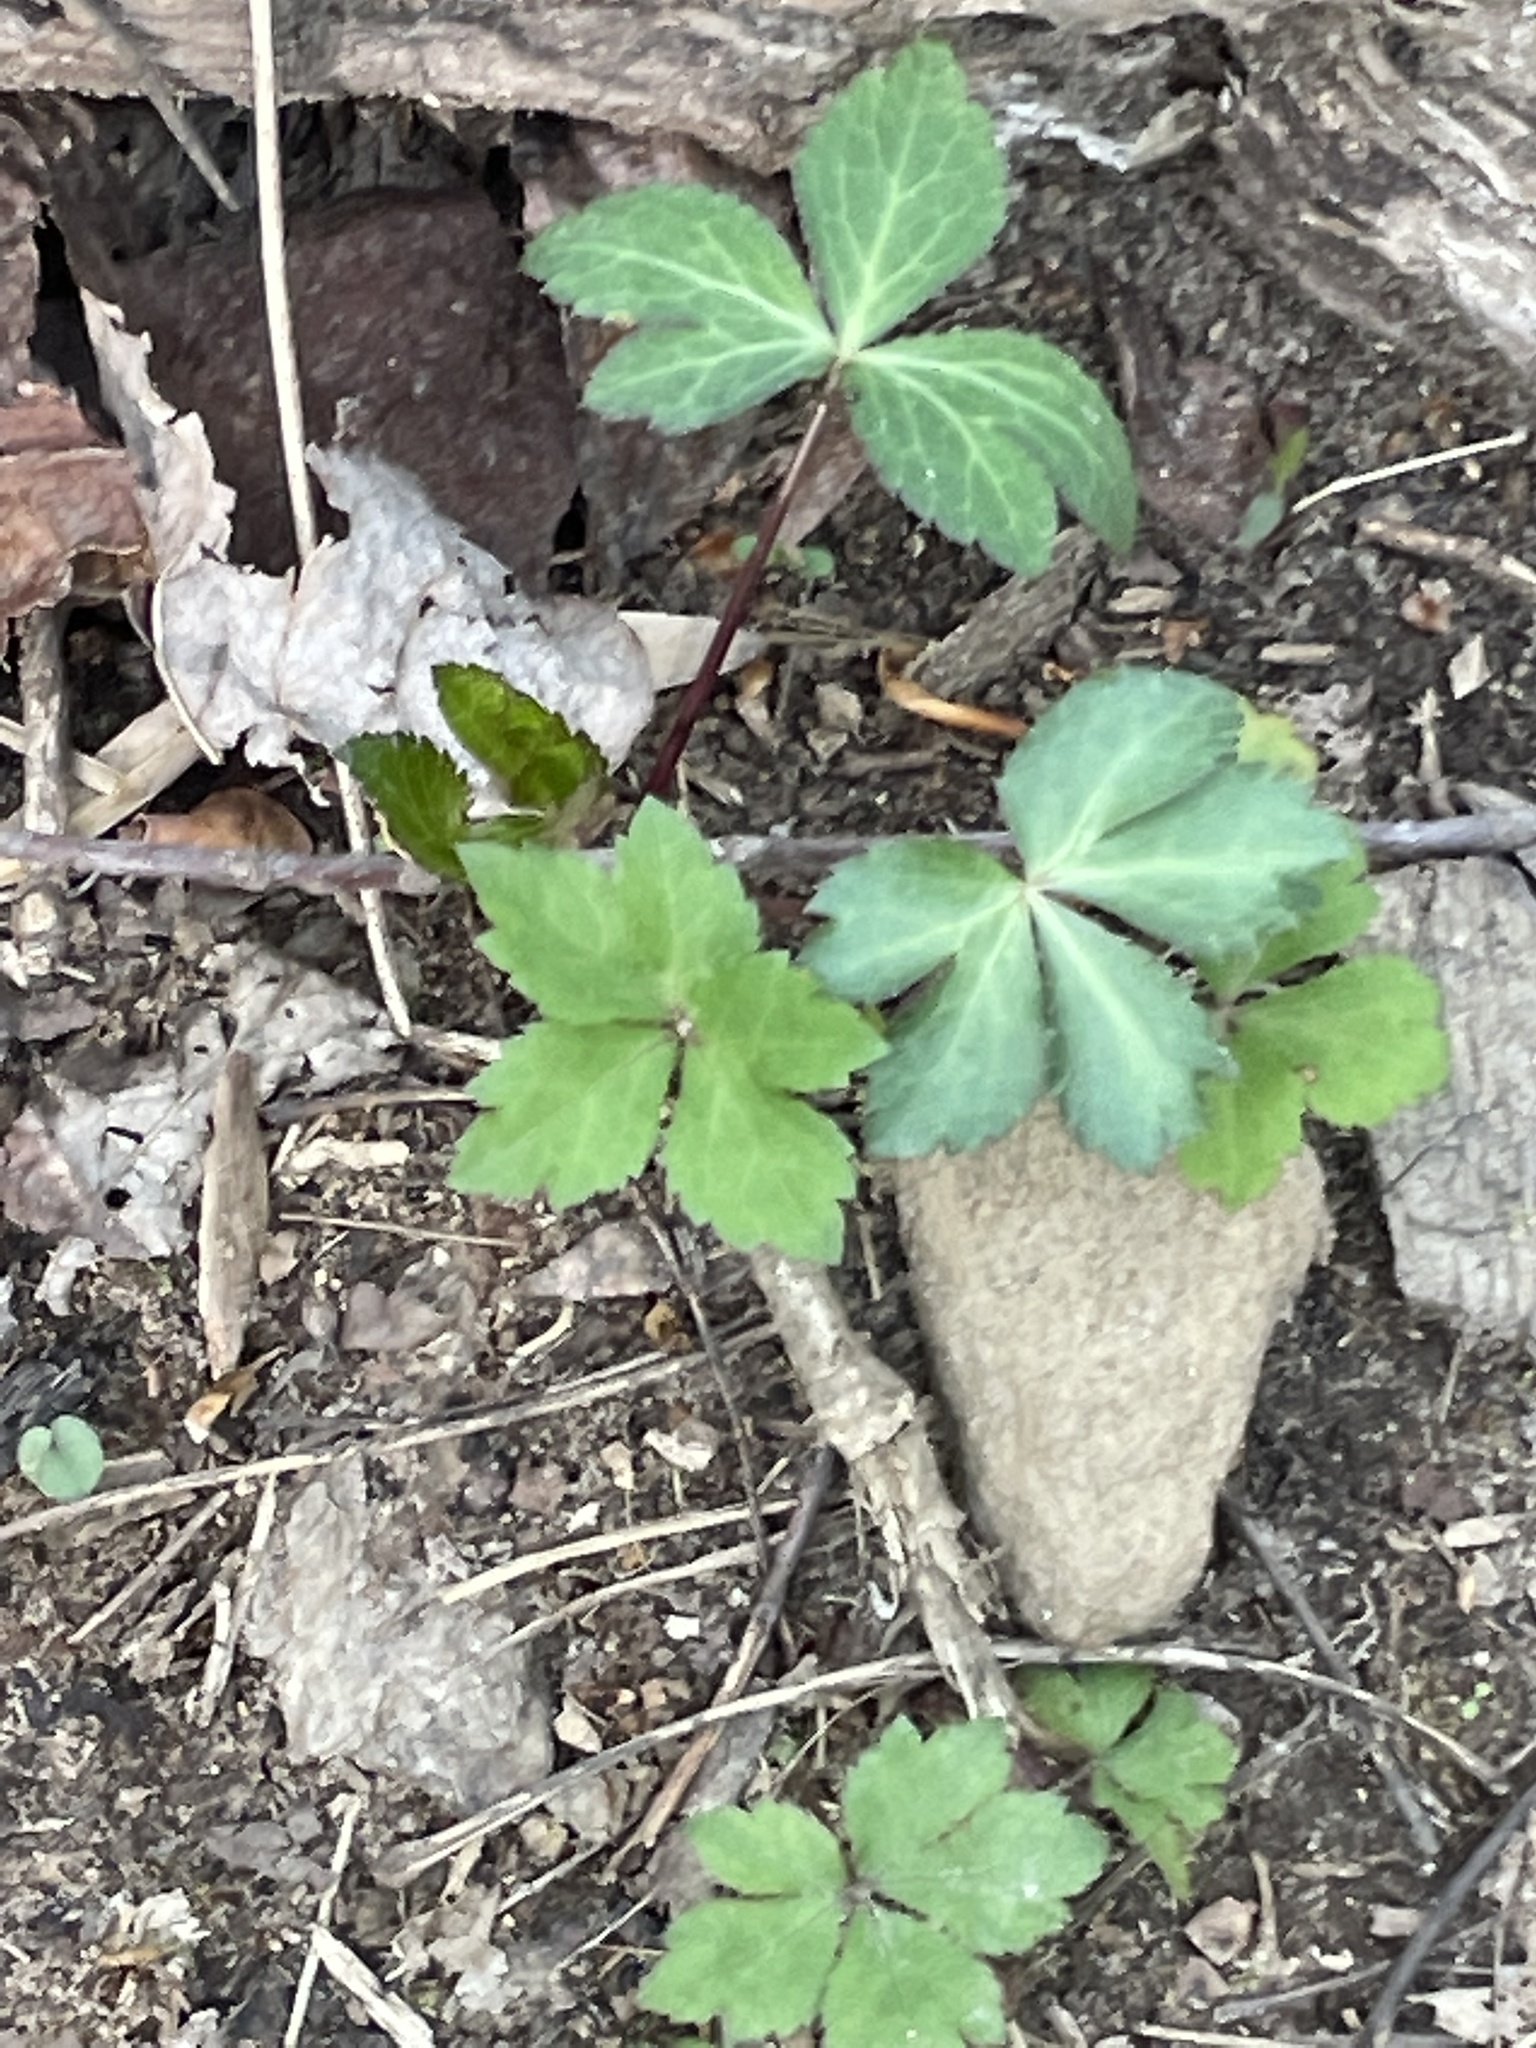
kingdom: Plantae
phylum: Tracheophyta
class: Magnoliopsida
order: Apiales
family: Apiaceae
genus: Sanicula
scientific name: Sanicula smallii
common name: Small's black snakeroot
